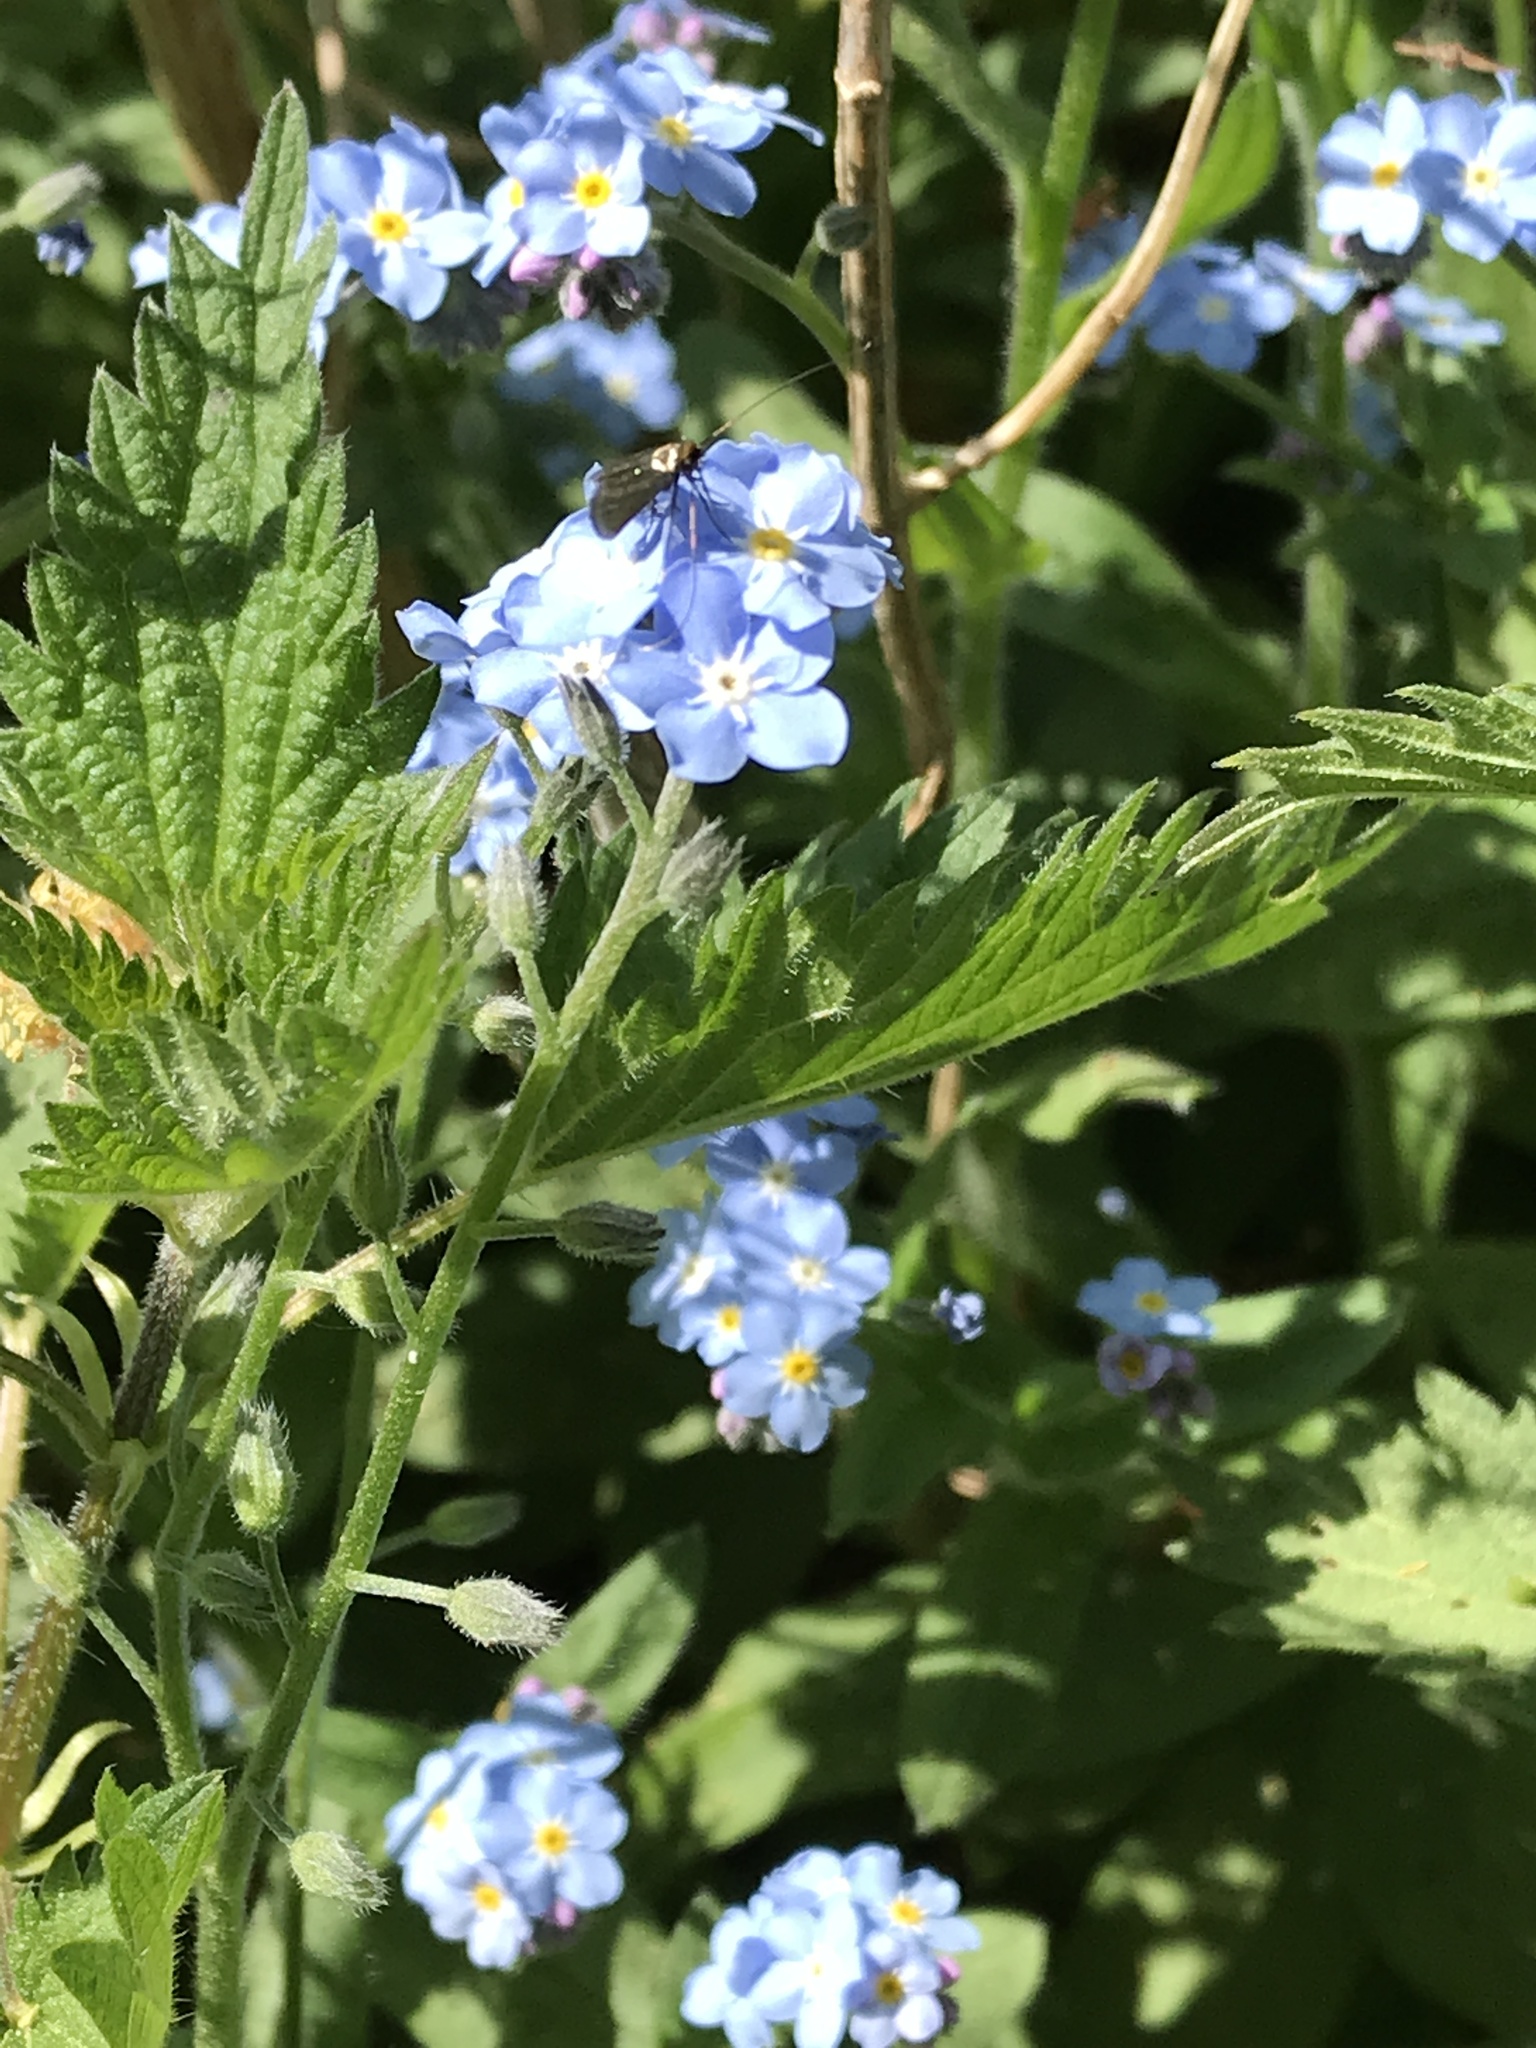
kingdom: Plantae
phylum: Tracheophyta
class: Magnoliopsida
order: Boraginales
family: Boraginaceae
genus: Myosotis
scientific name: Myosotis sylvatica
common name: Wood forget-me-not
